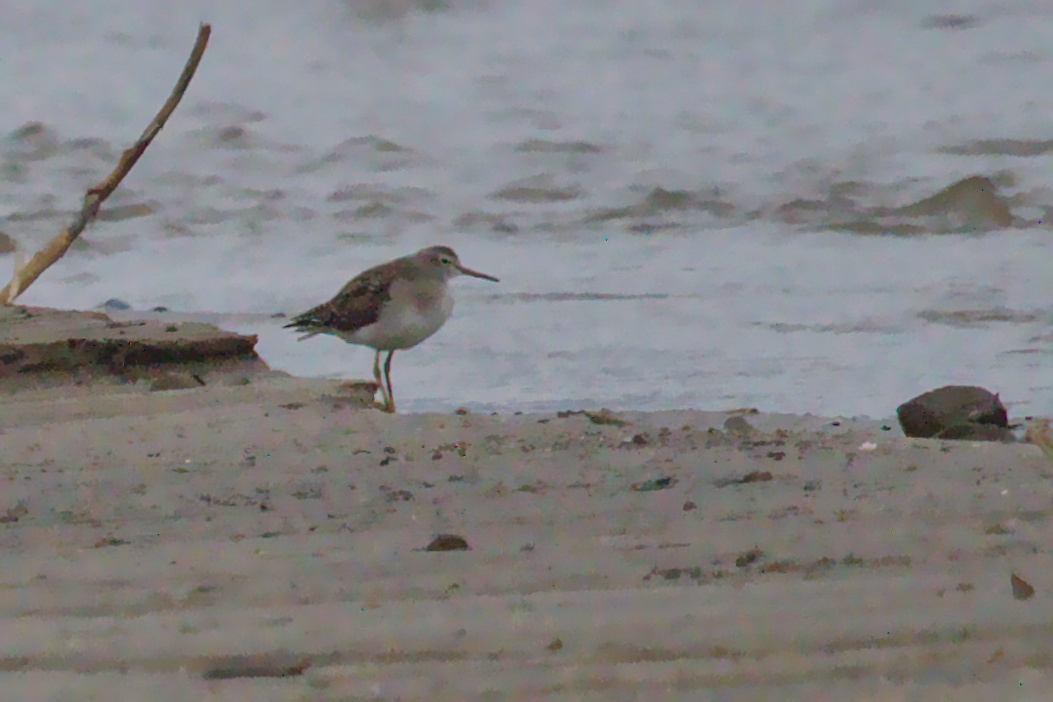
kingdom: Animalia
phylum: Chordata
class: Aves
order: Charadriiformes
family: Scolopacidae
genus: Tringa
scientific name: Tringa glareola
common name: Wood sandpiper
